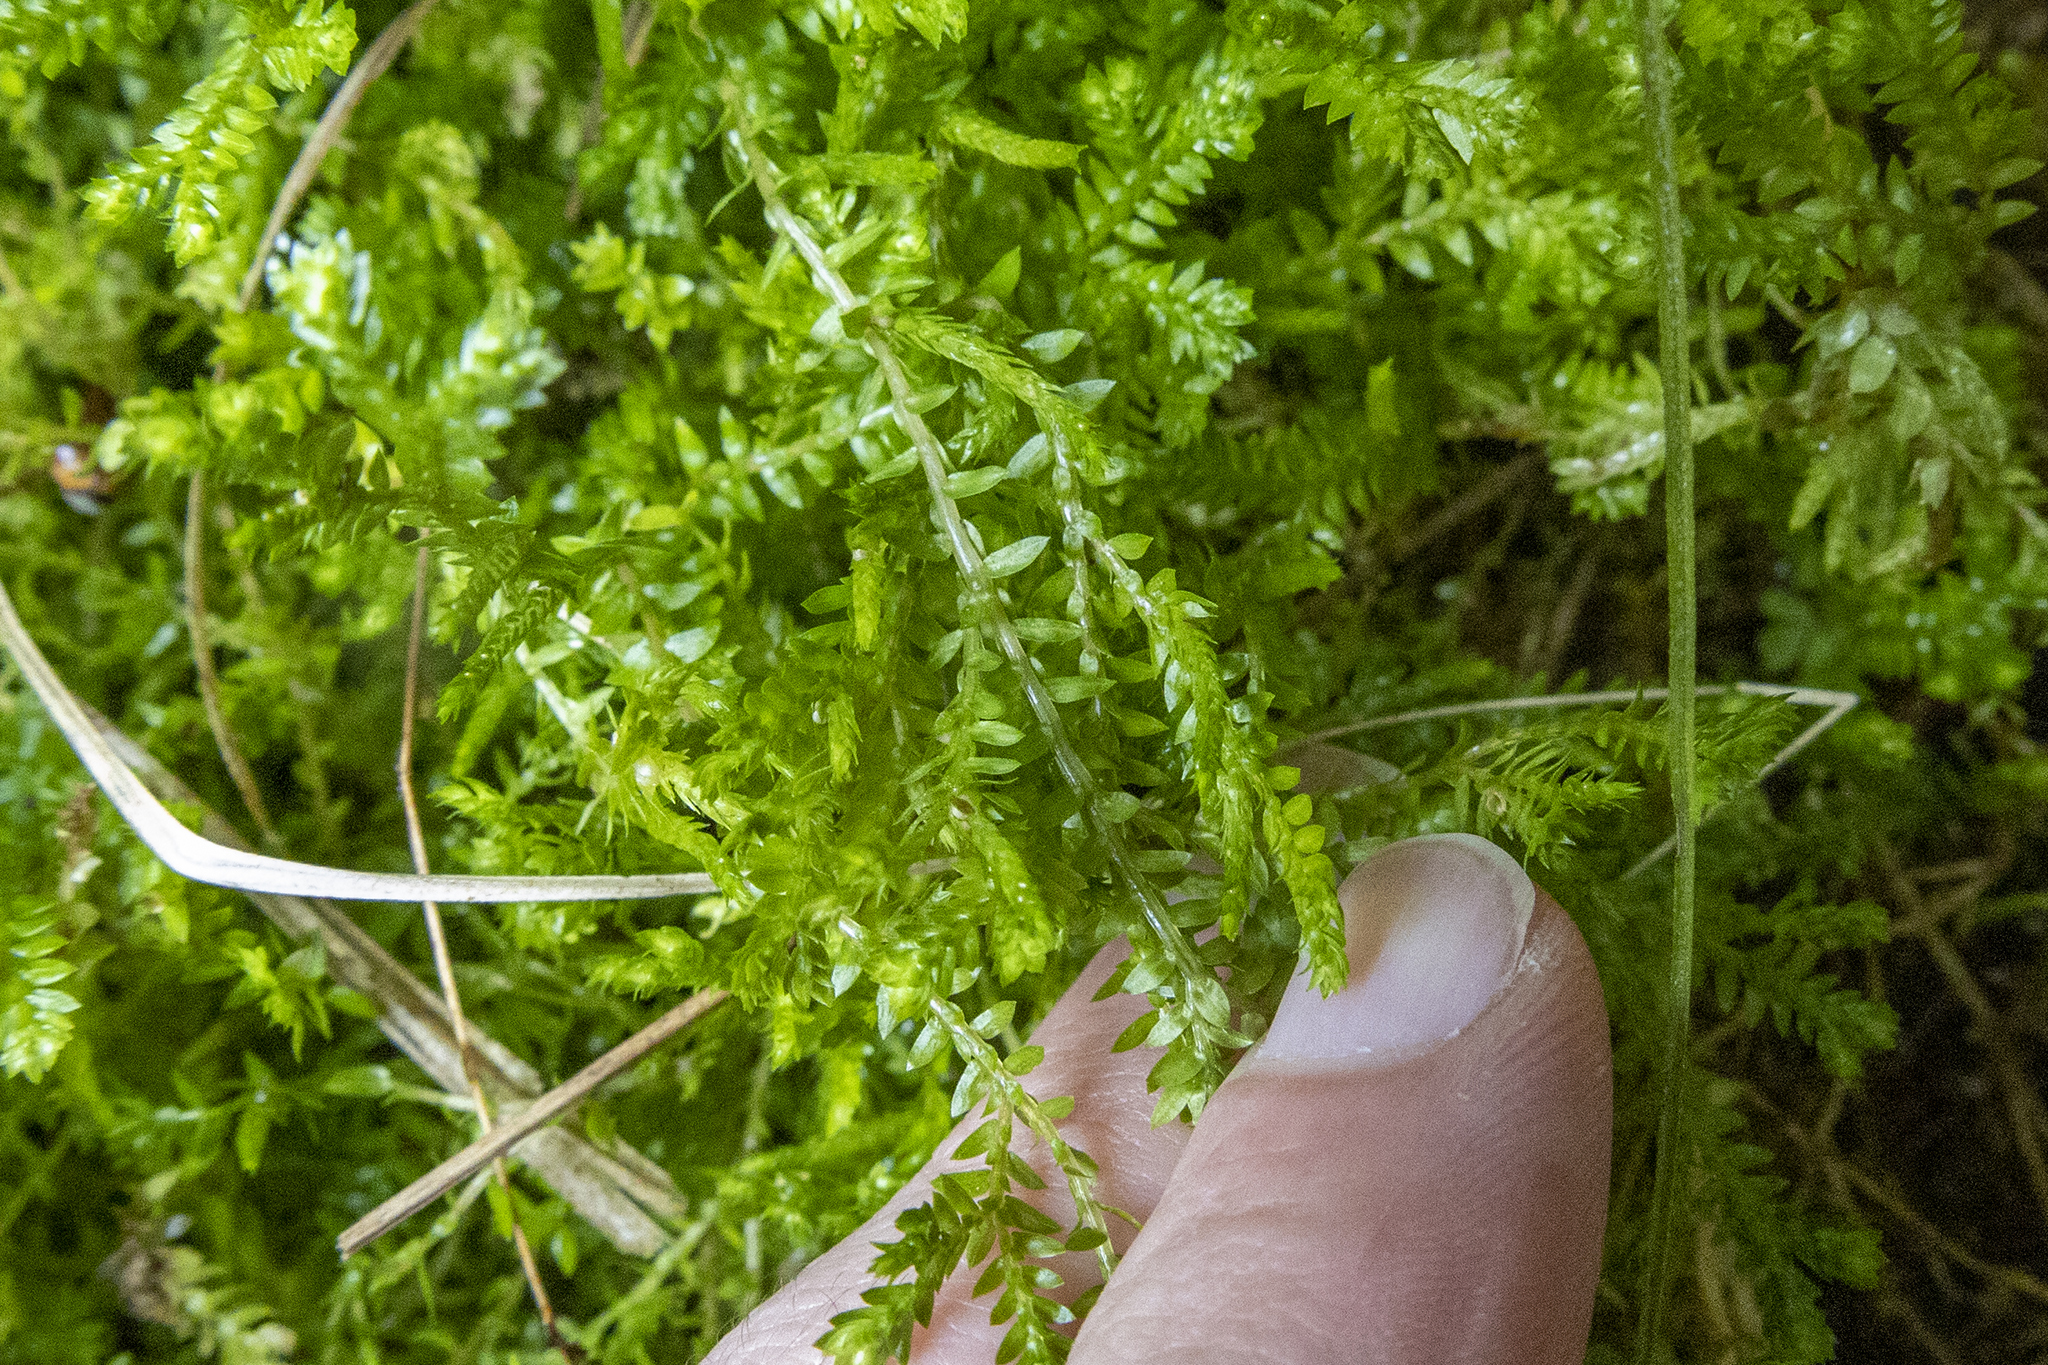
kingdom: Plantae
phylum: Tracheophyta
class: Lycopodiopsida
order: Selaginellales
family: Selaginellaceae
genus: Selaginella
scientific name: Selaginella kraussiana
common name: Krauss' spikemoss
